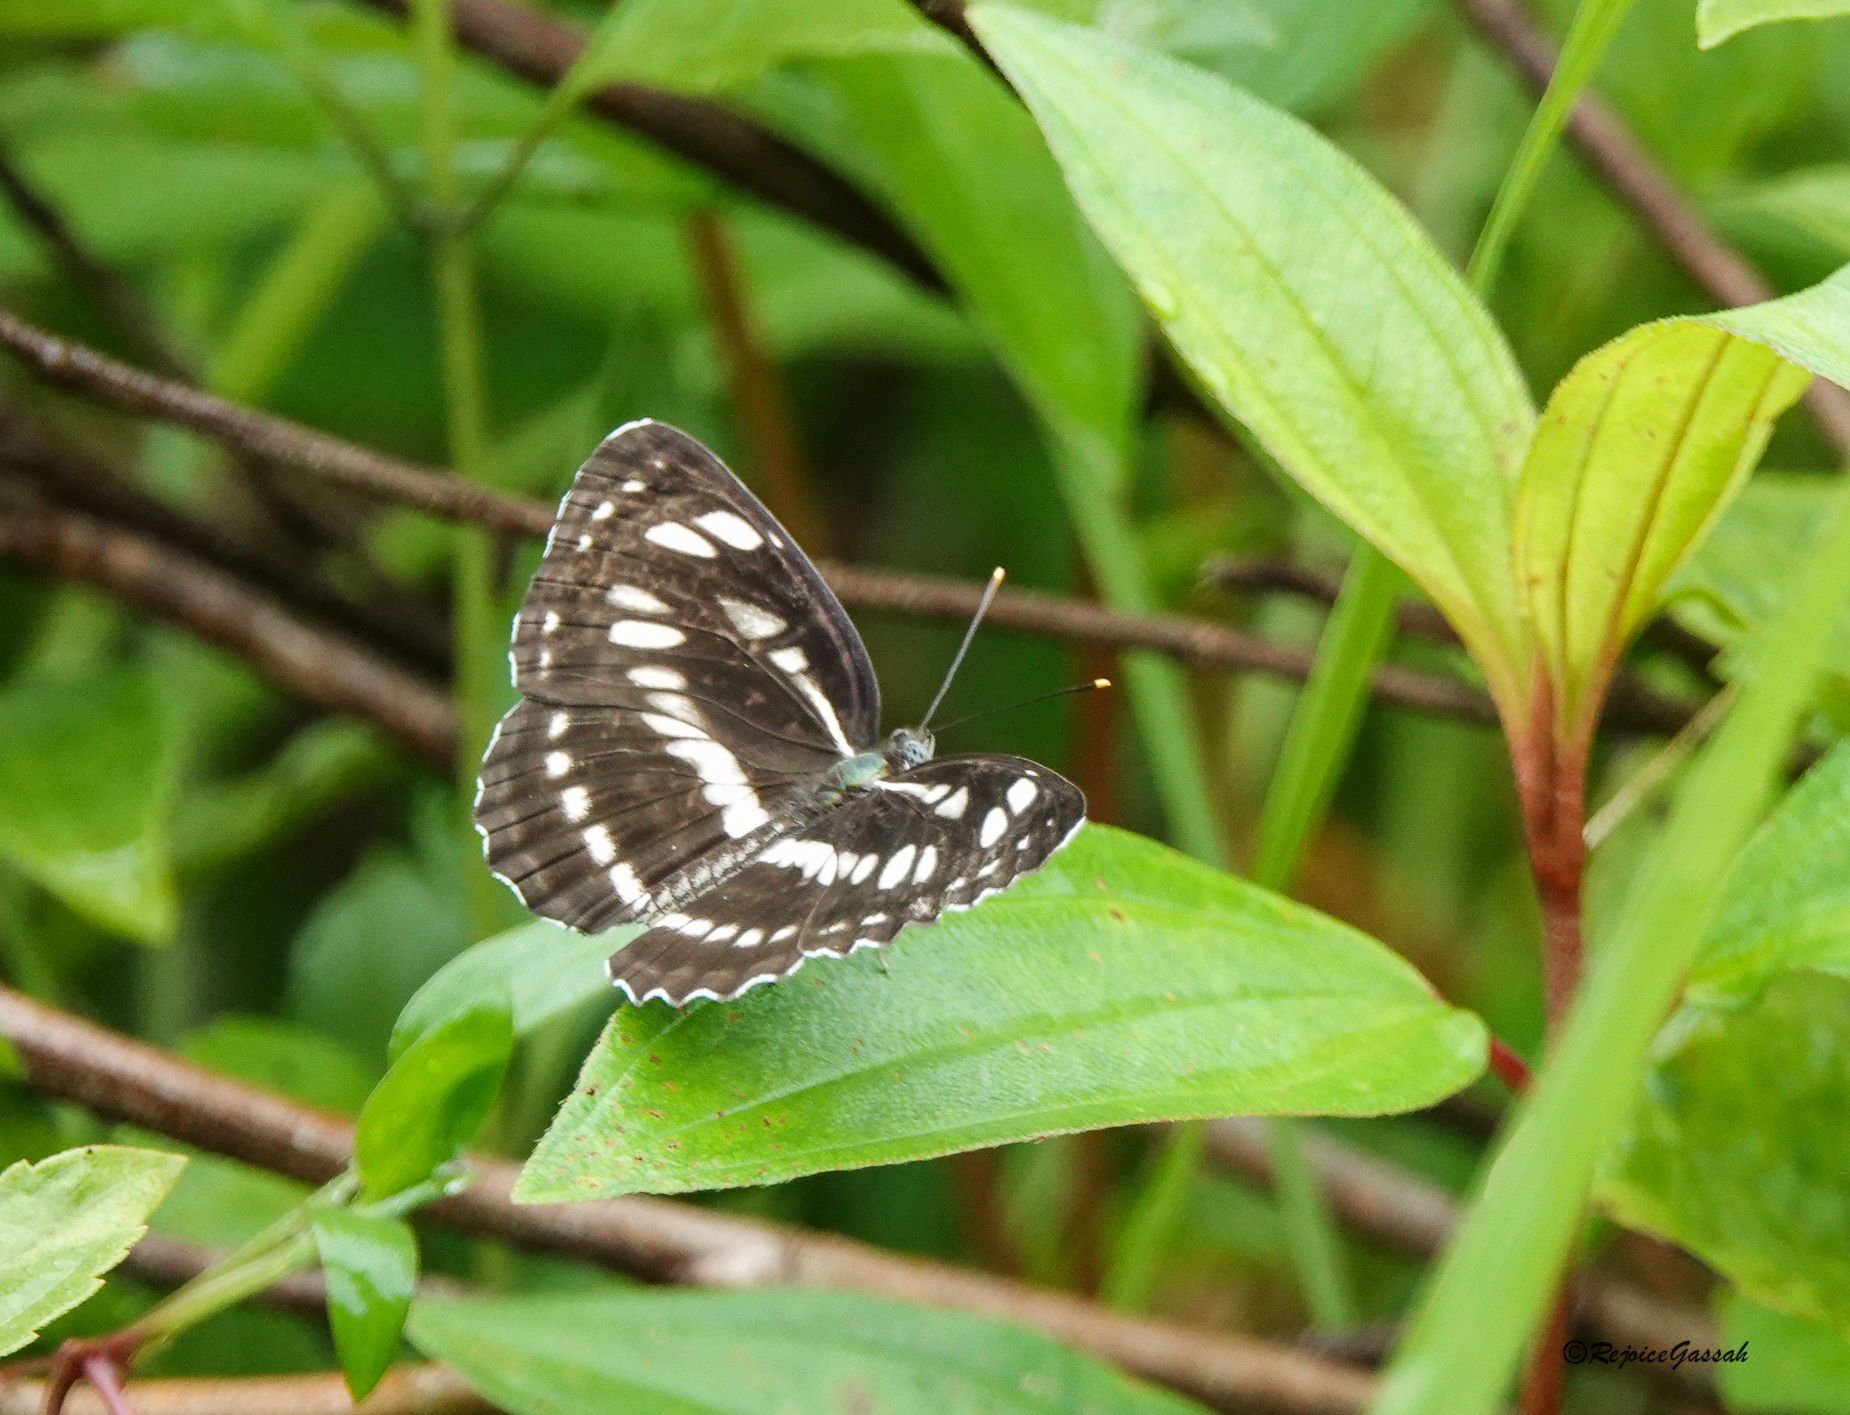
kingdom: Animalia
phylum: Arthropoda
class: Insecta
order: Lepidoptera
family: Nymphalidae
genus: Neptis
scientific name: Neptis hylas
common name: Common sailer
